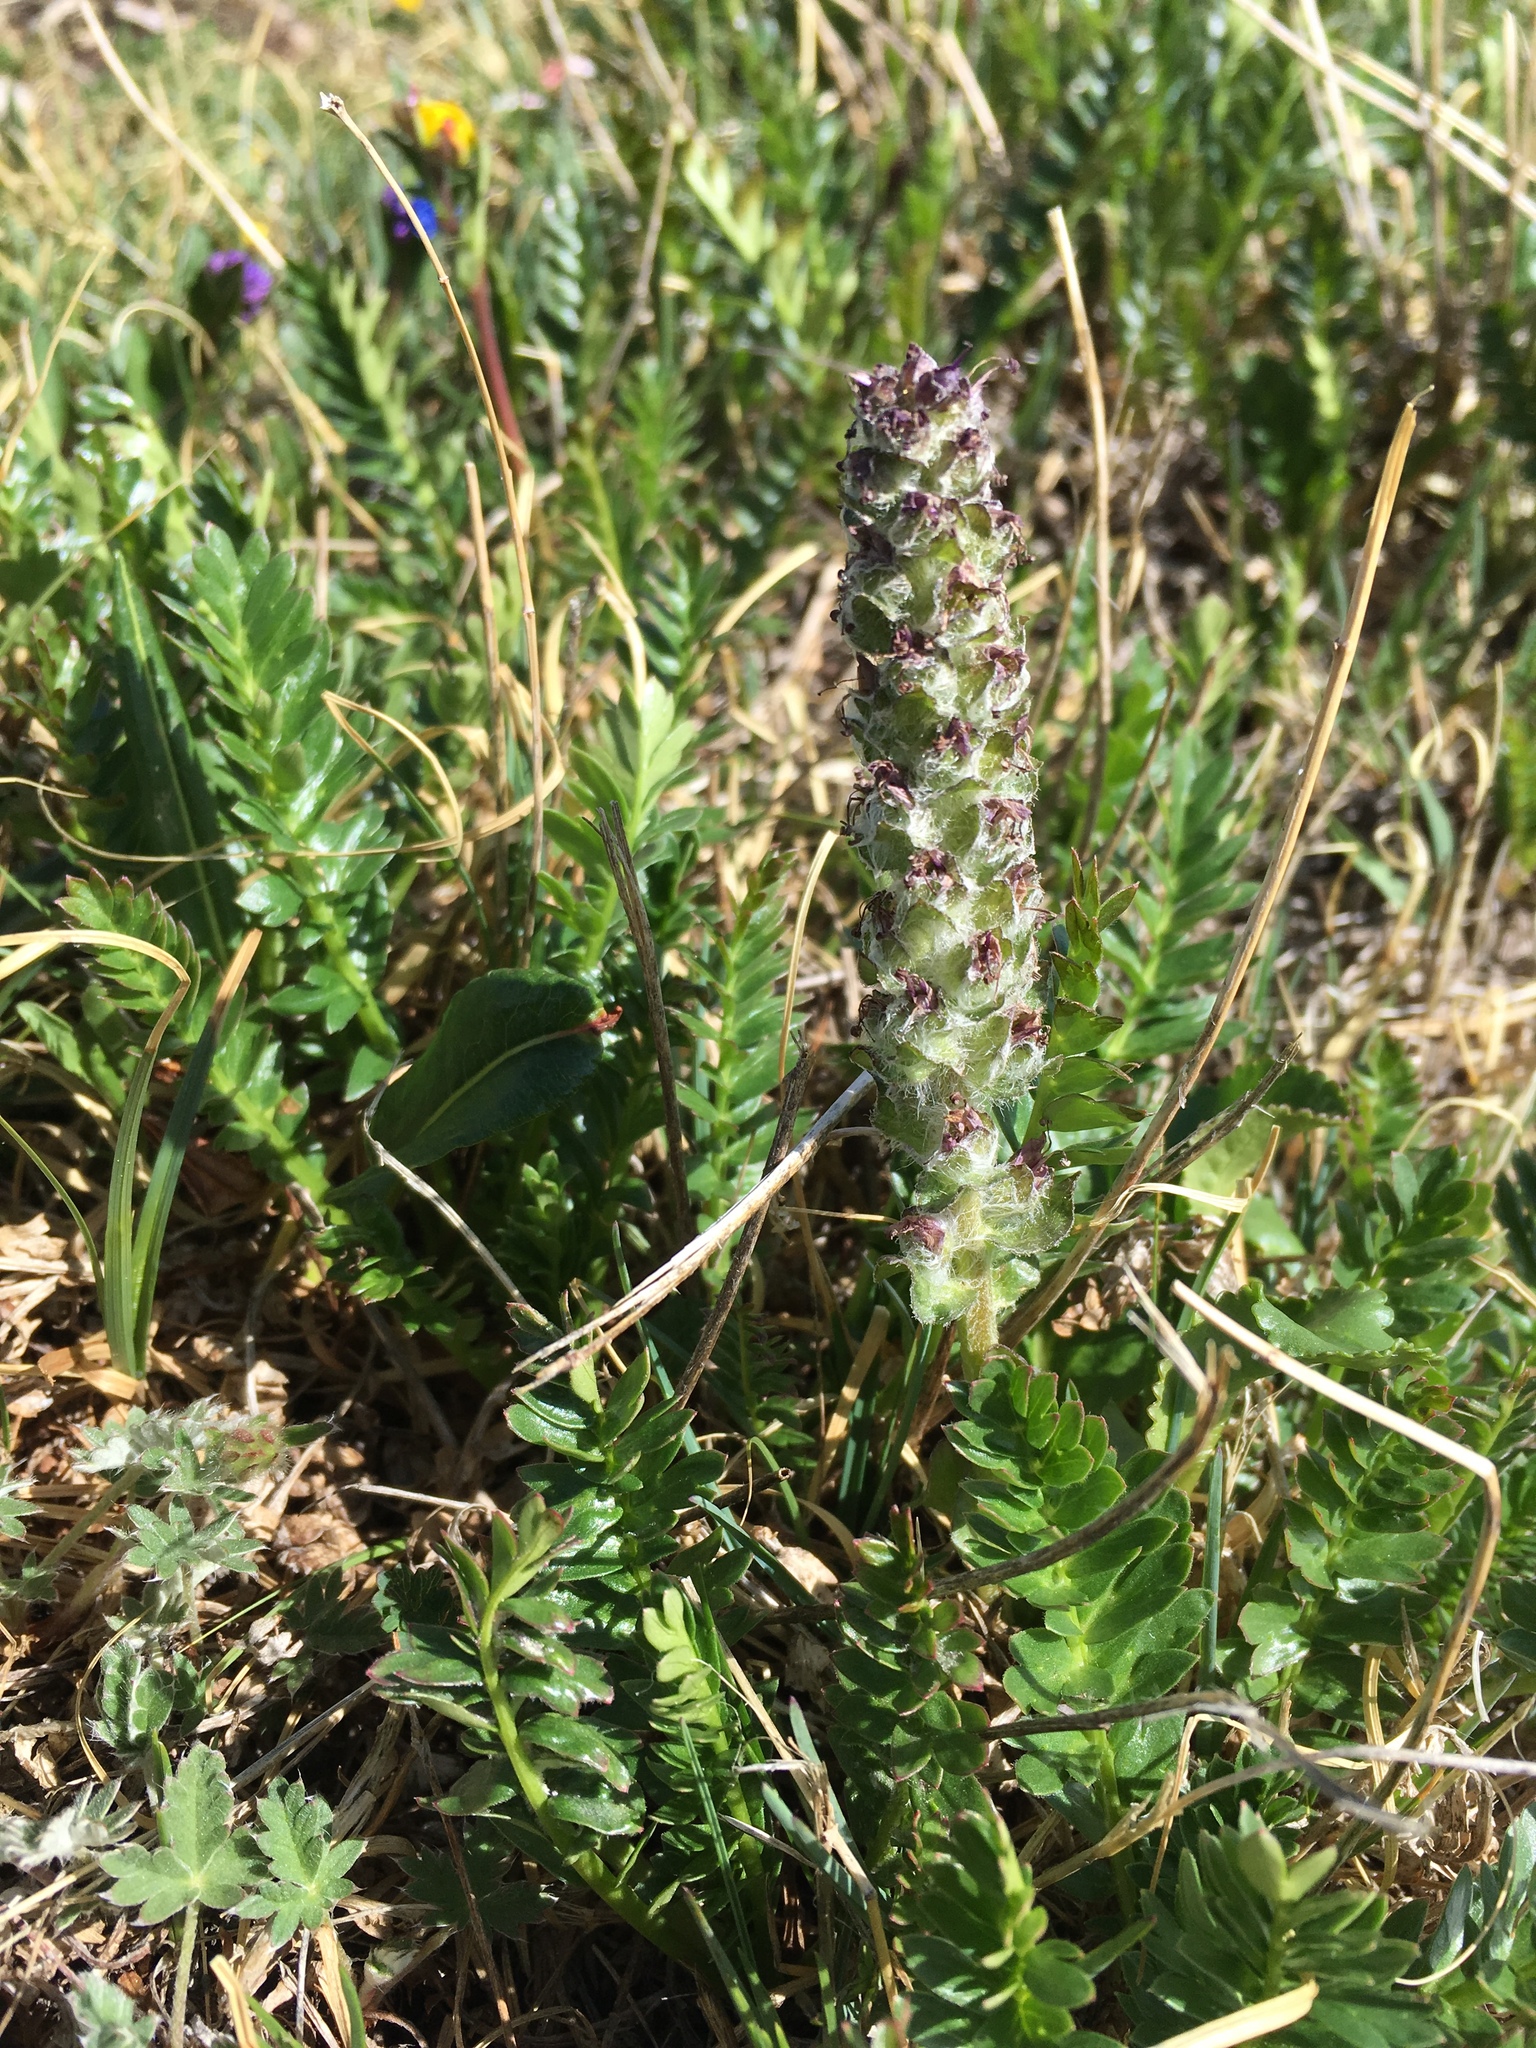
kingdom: Plantae
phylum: Tracheophyta
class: Magnoliopsida
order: Lamiales
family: Plantaginaceae
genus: Synthyris
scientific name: Synthyris alpina
